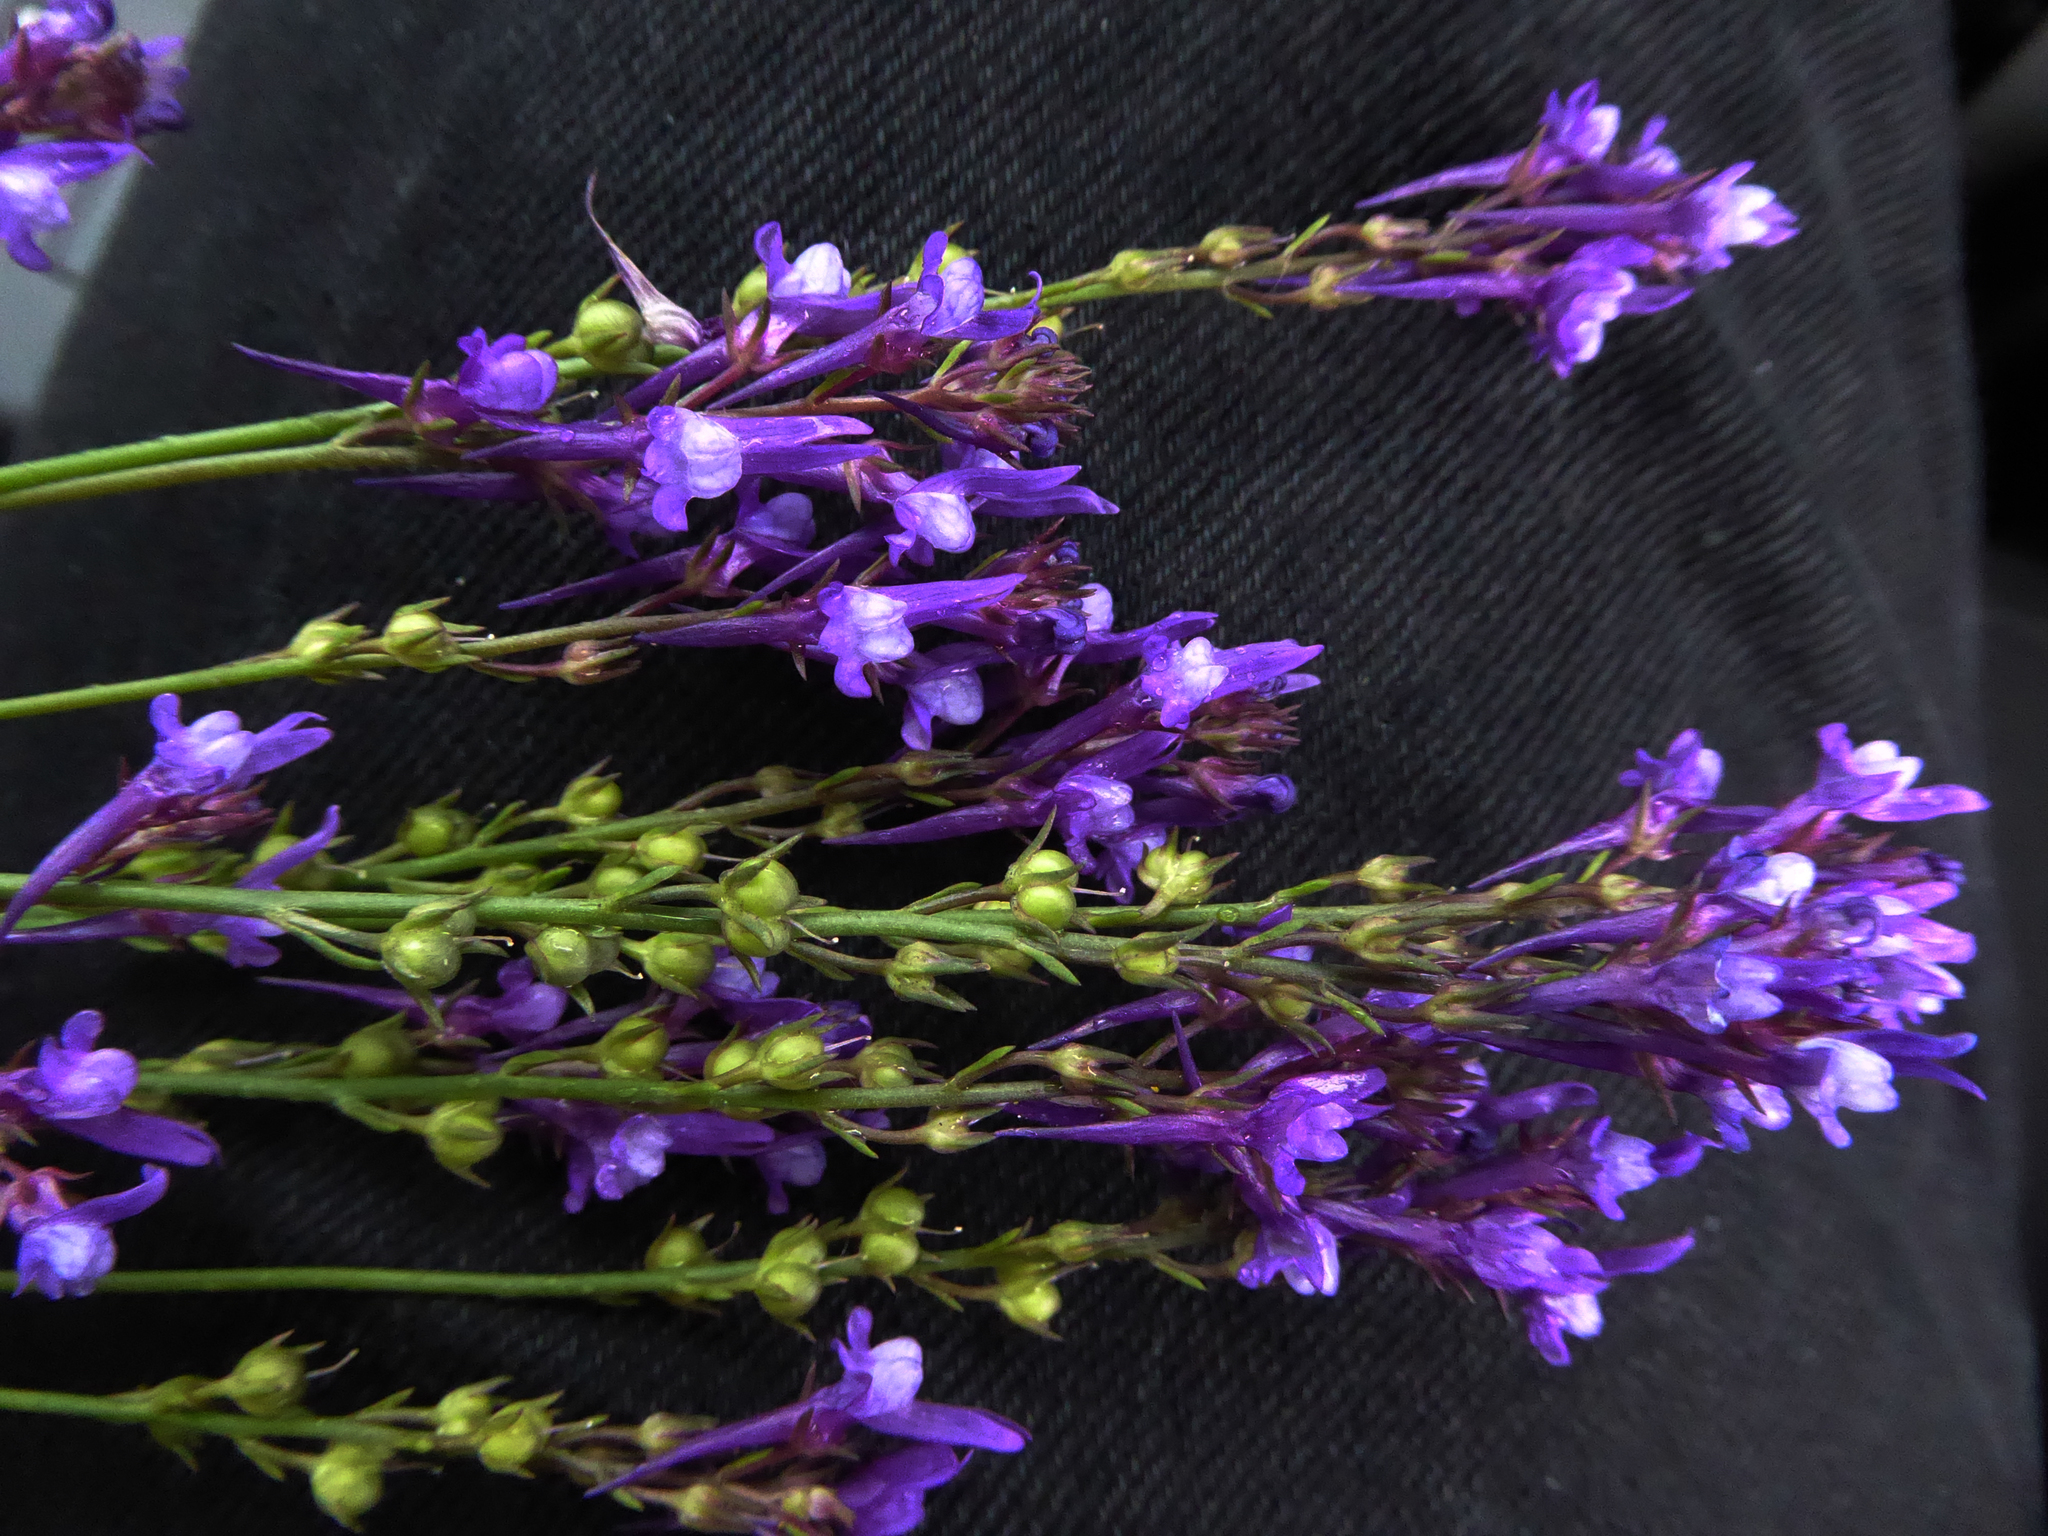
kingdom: Plantae
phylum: Tracheophyta
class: Magnoliopsida
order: Lamiales
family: Plantaginaceae
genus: Linaria
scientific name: Linaria pelisseriana
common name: Jersey toadflax
